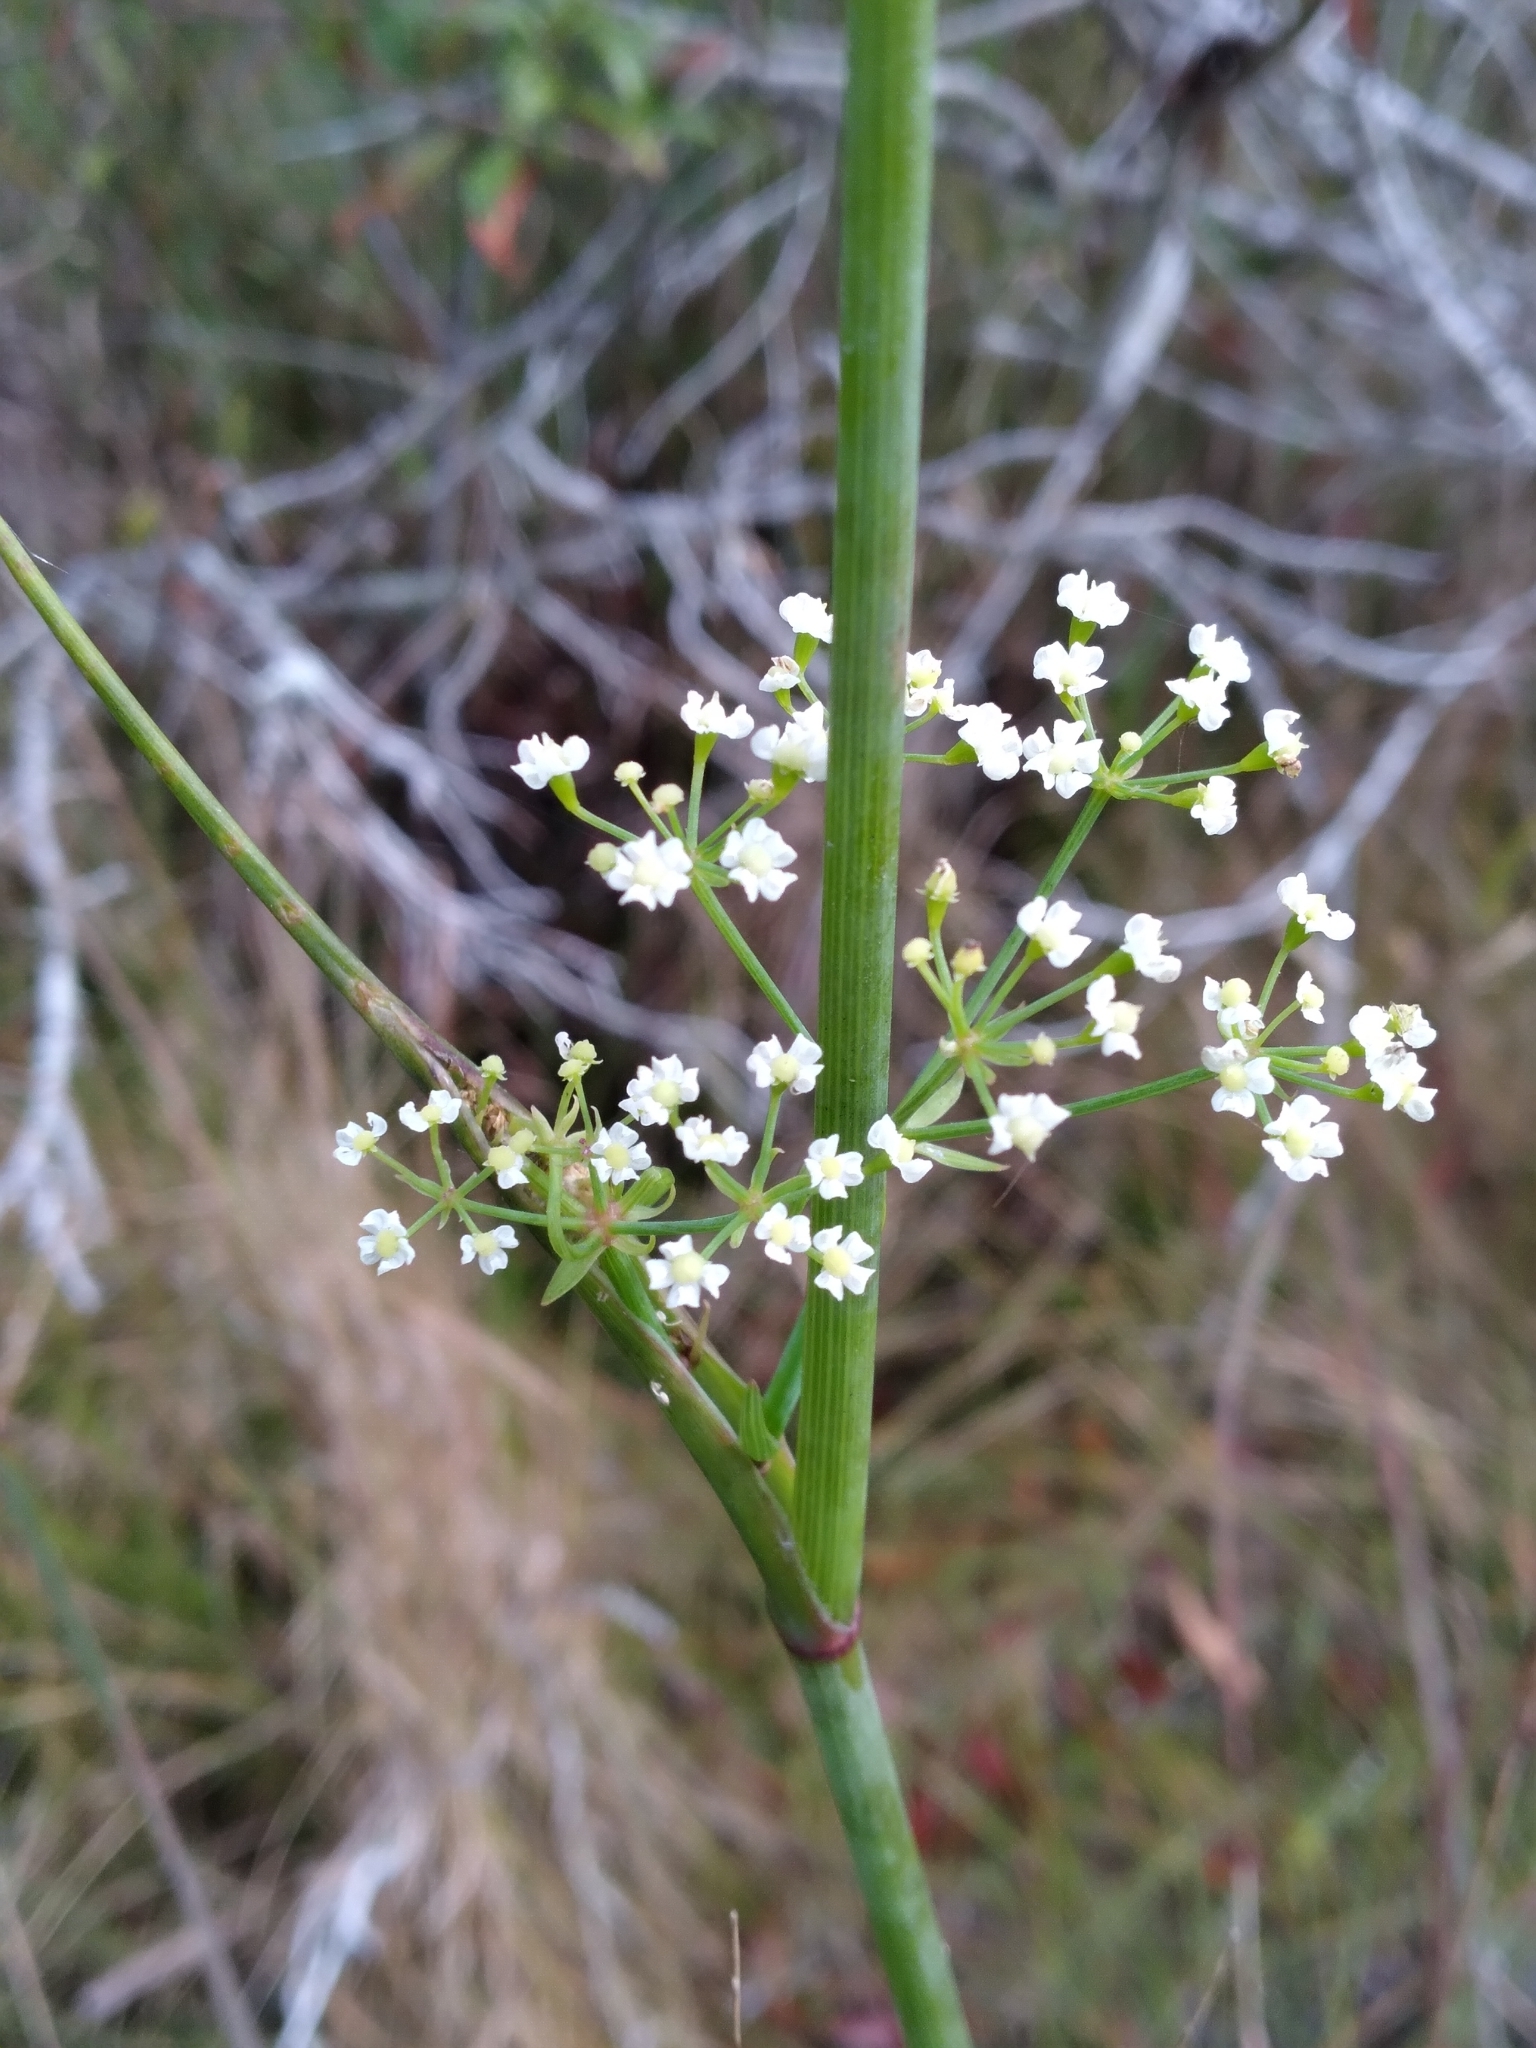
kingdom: Plantae
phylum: Tracheophyta
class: Magnoliopsida
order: Apiales
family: Apiaceae
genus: Tiedemannia
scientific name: Tiedemannia filiformis
